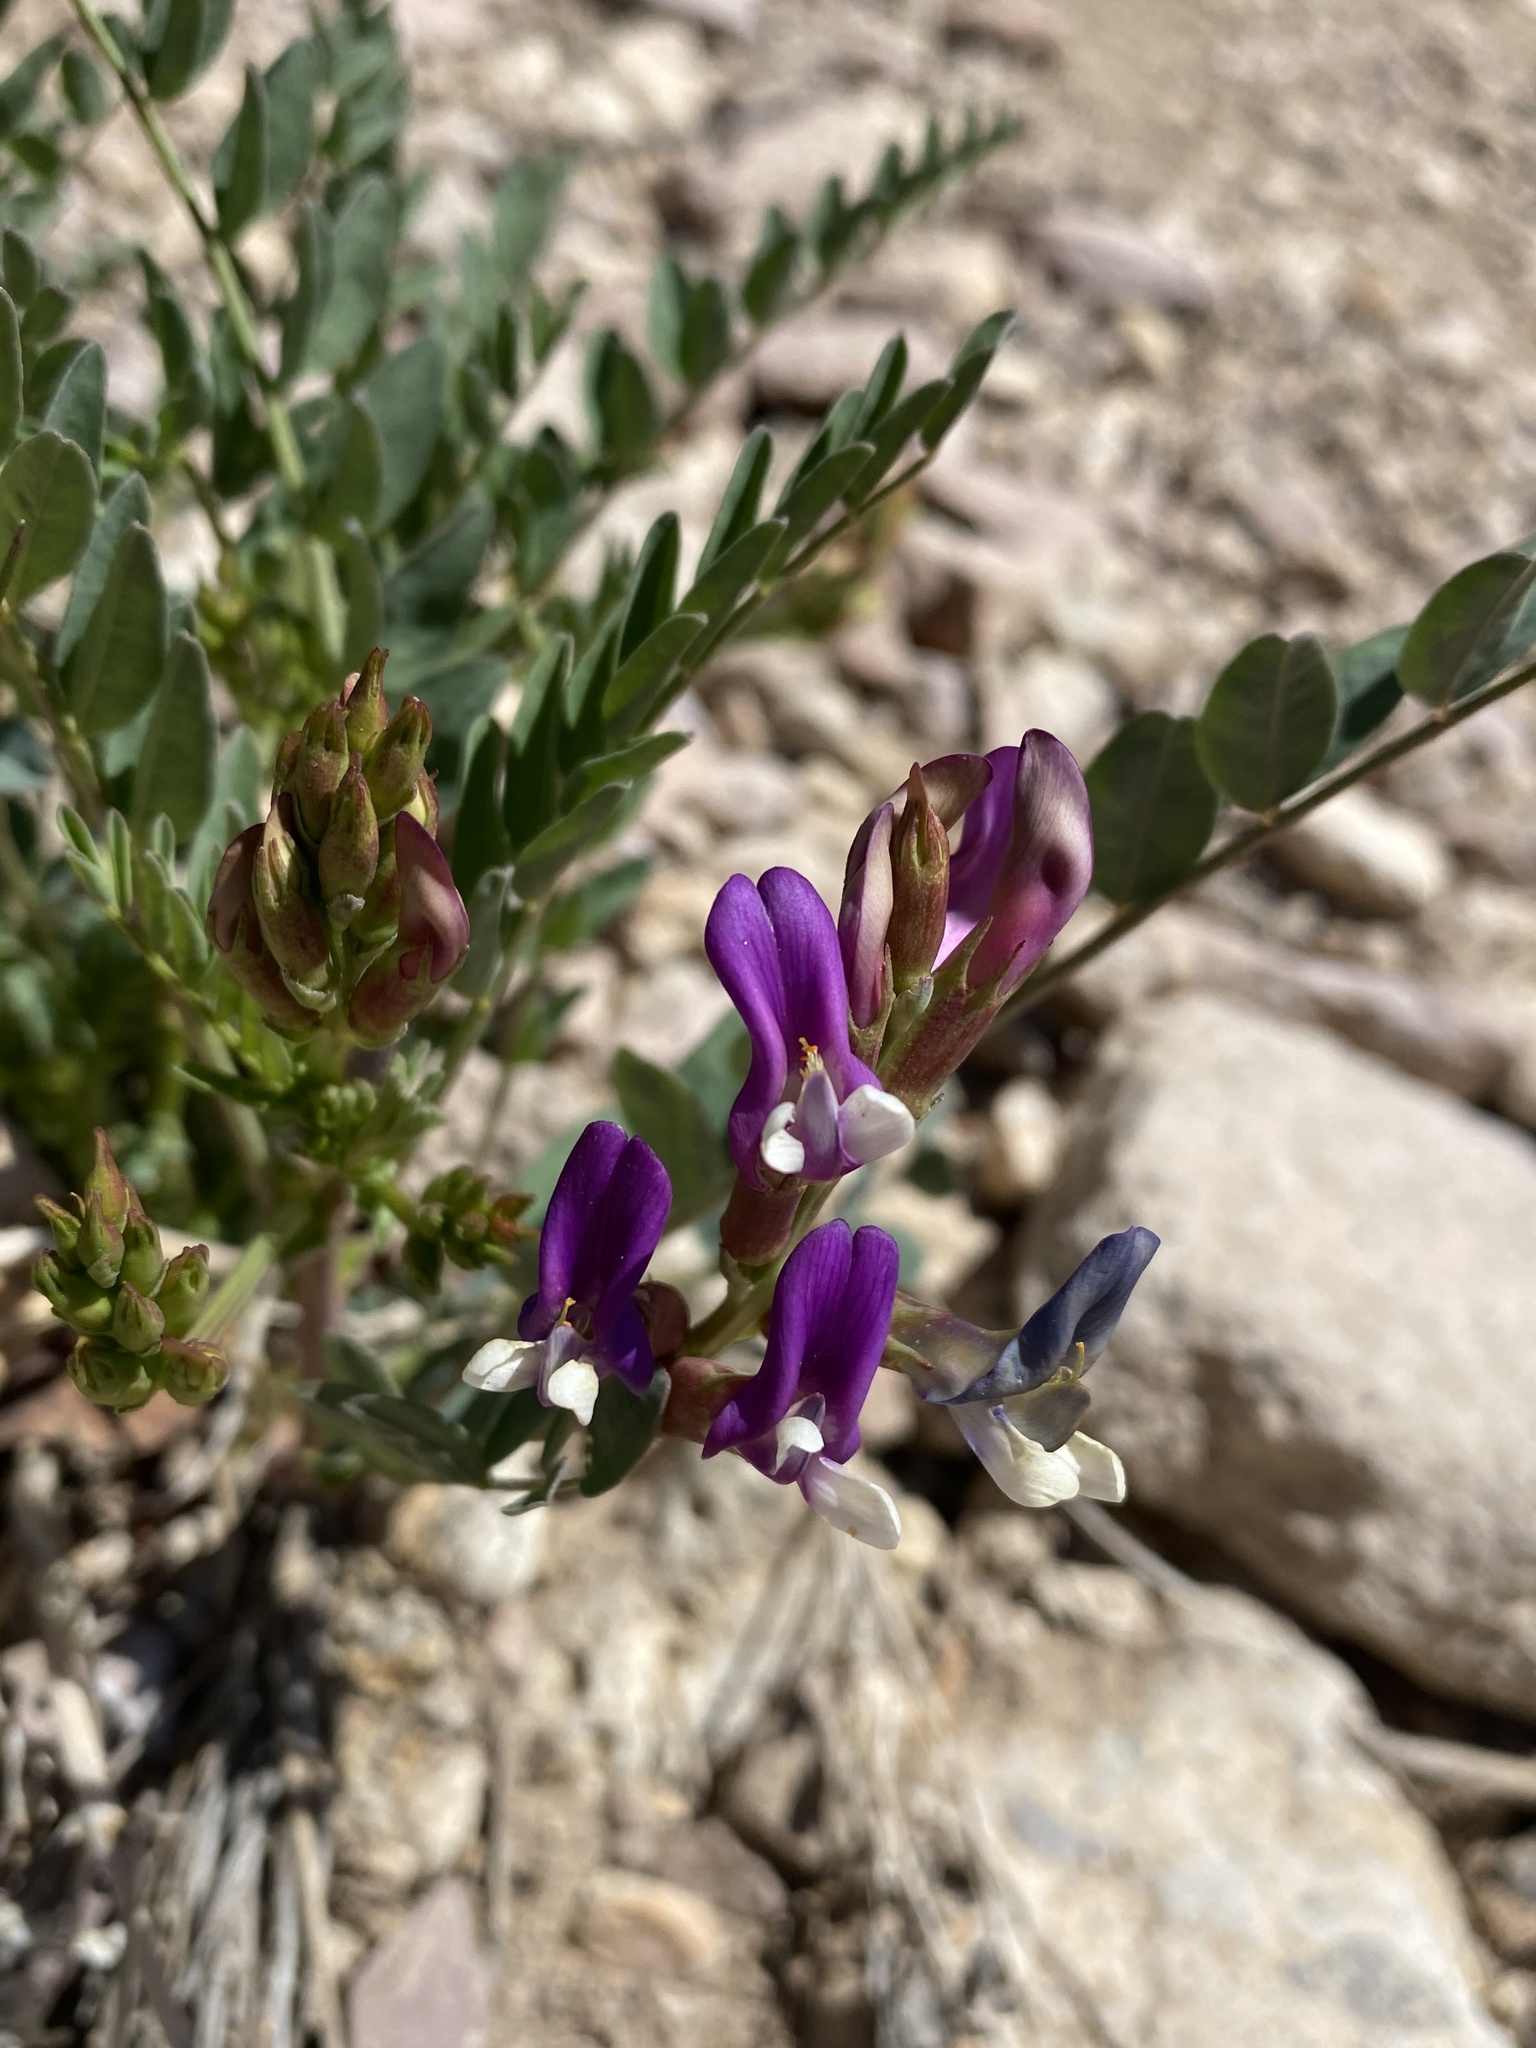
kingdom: Plantae
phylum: Tracheophyta
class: Magnoliopsida
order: Fabales
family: Fabaceae
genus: Astragalus
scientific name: Astragalus oophorus
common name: Egg milkvetch
